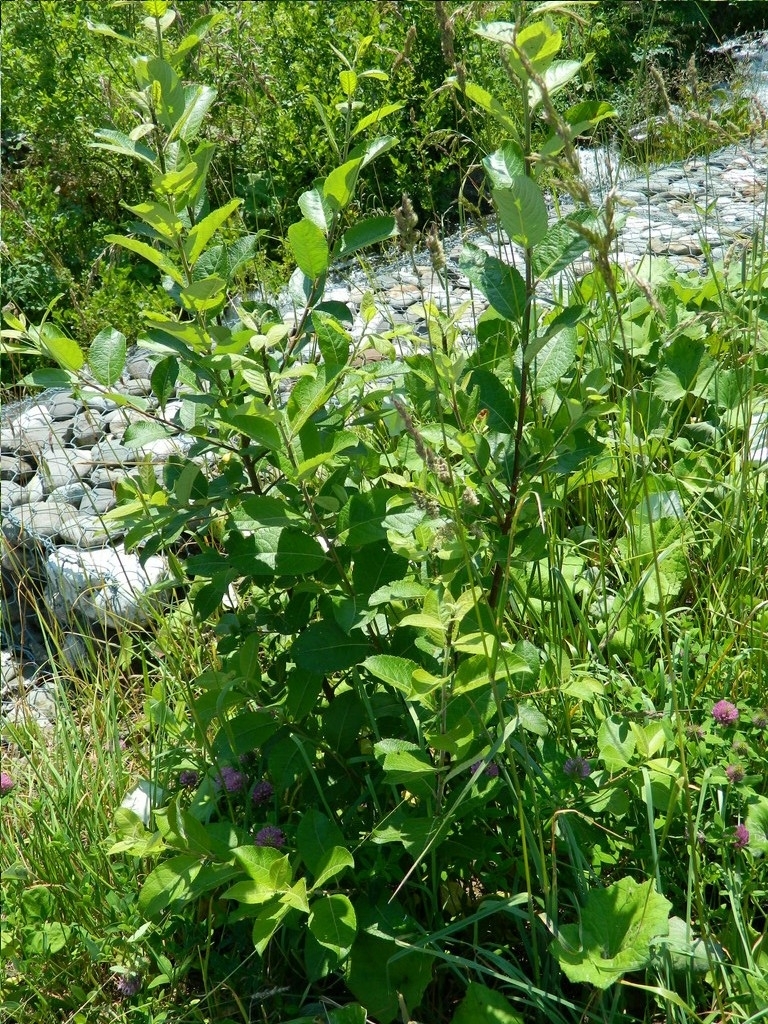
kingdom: Plantae
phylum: Tracheophyta
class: Magnoliopsida
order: Malpighiales
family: Salicaceae
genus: Salix
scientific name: Salix caprea
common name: Goat willow
